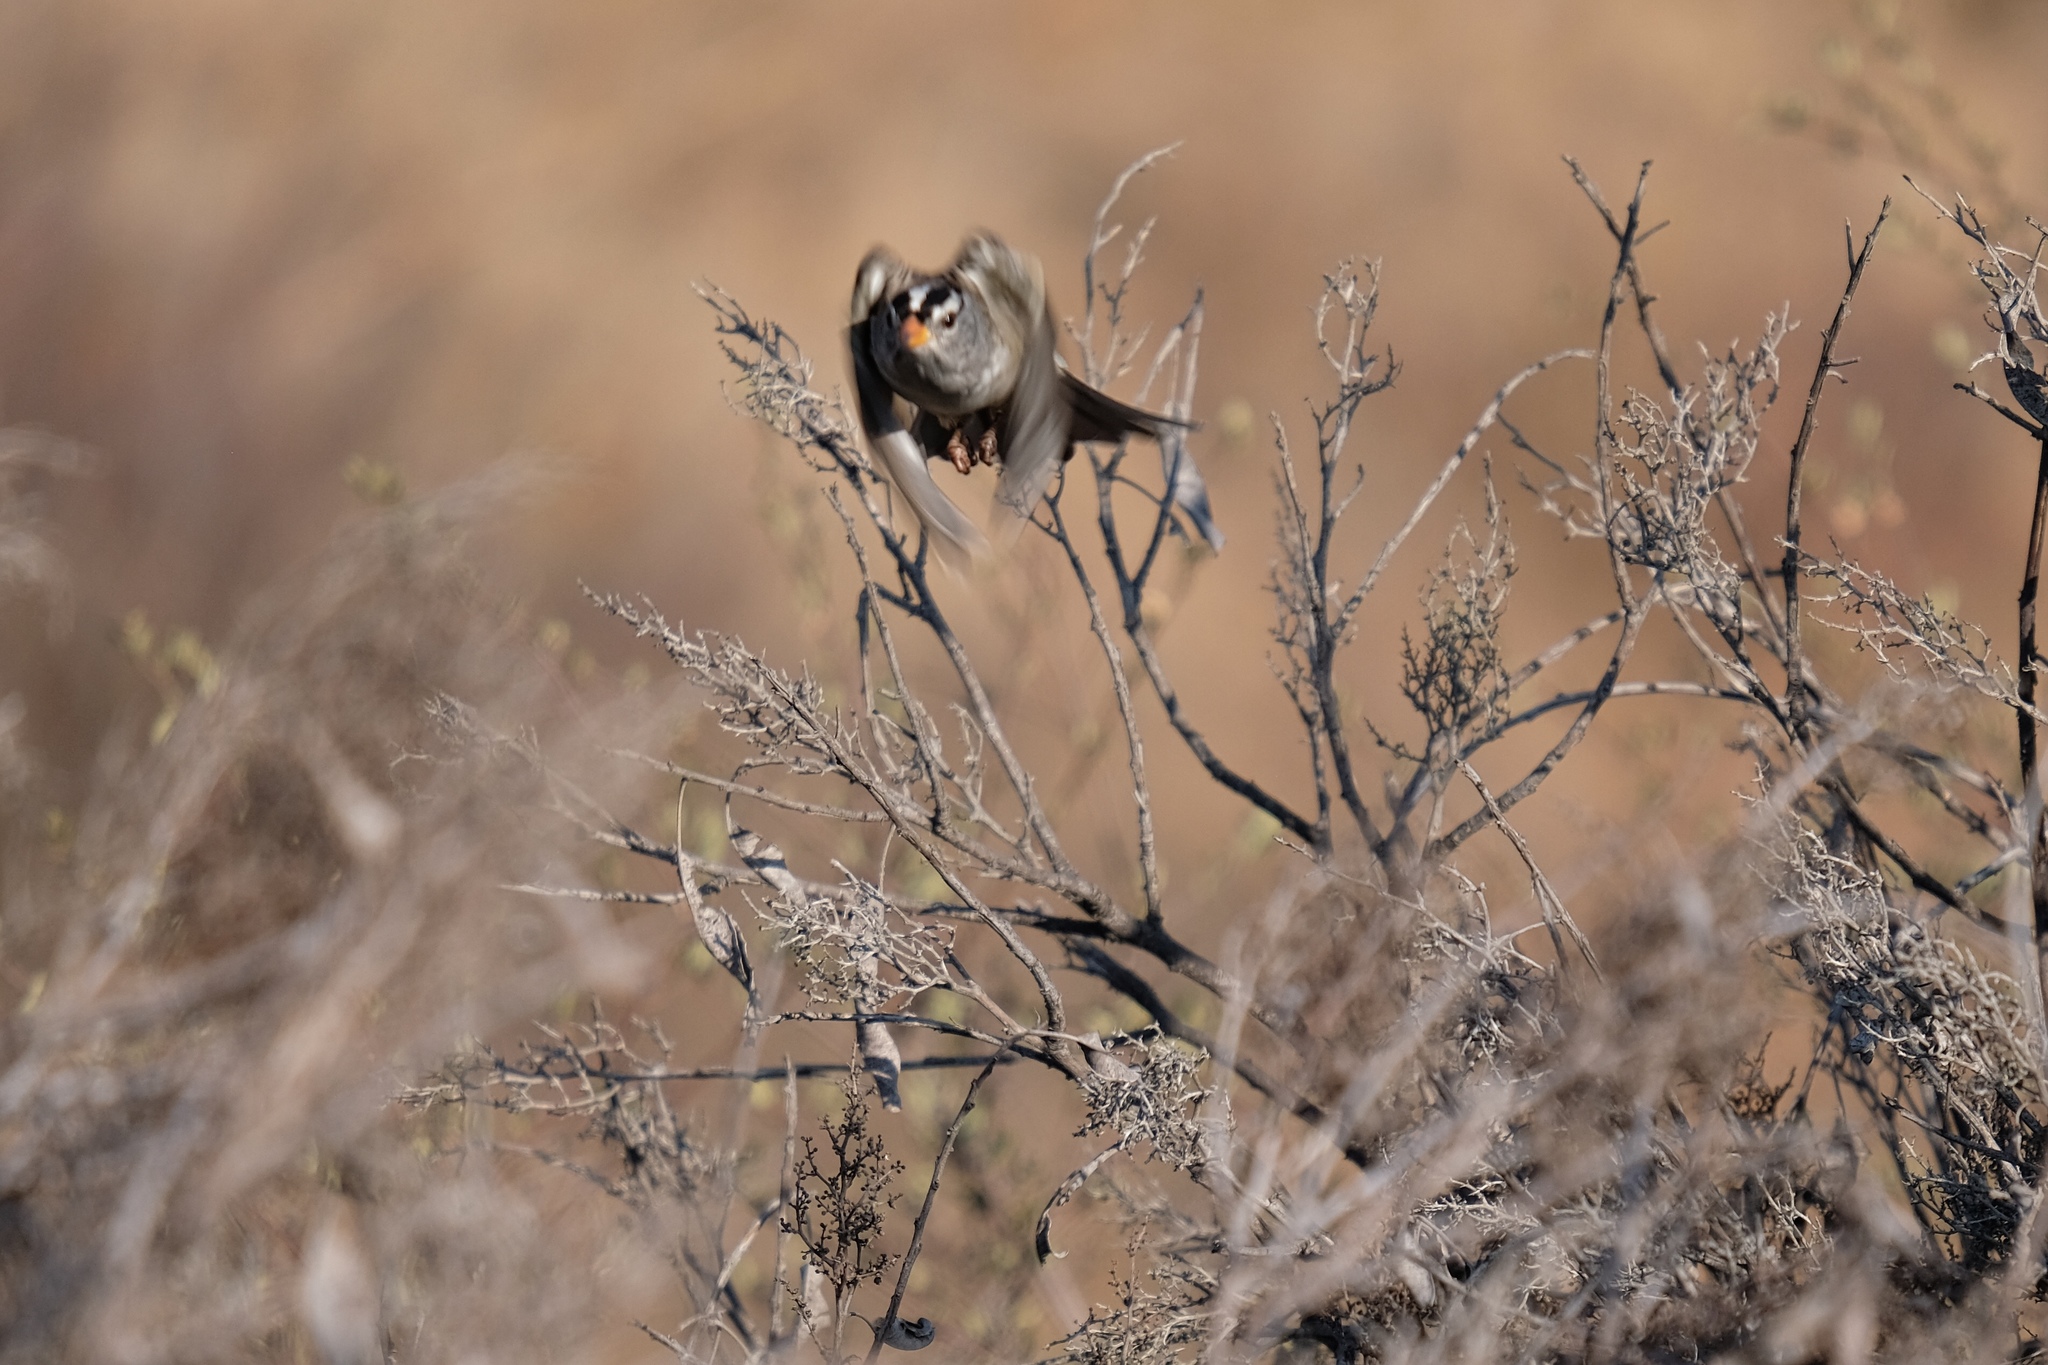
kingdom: Animalia
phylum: Chordata
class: Aves
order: Passeriformes
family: Passerellidae
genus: Zonotrichia
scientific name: Zonotrichia leucophrys
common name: White-crowned sparrow
